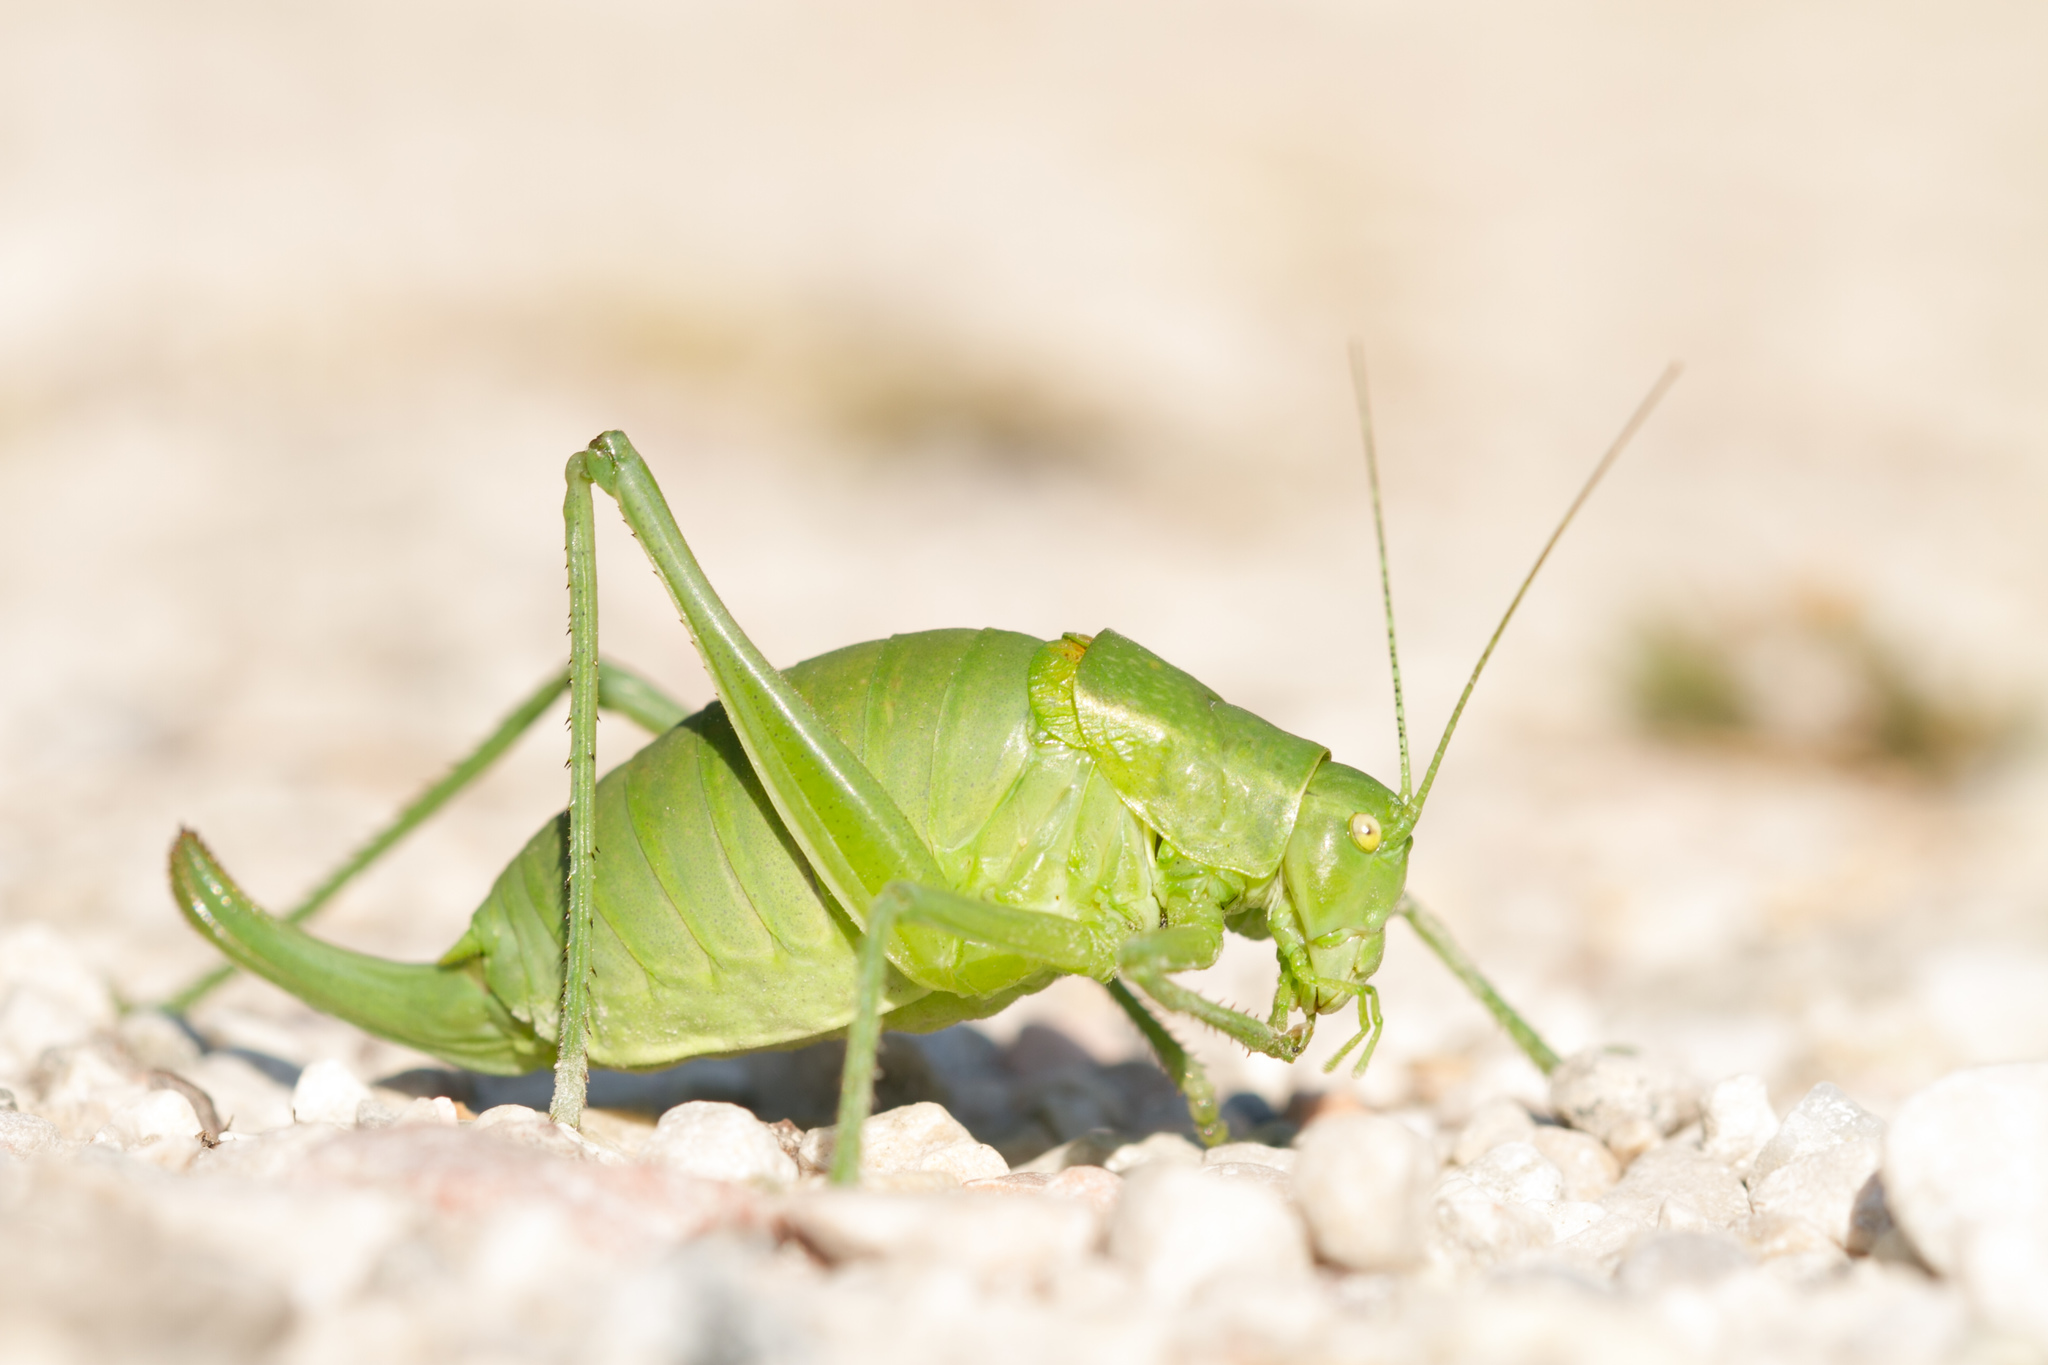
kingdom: Animalia
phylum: Arthropoda
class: Insecta
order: Orthoptera
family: Tettigoniidae
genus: Poecilimon
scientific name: Poecilimon ornatus
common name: Ornate bright bush-cricket
